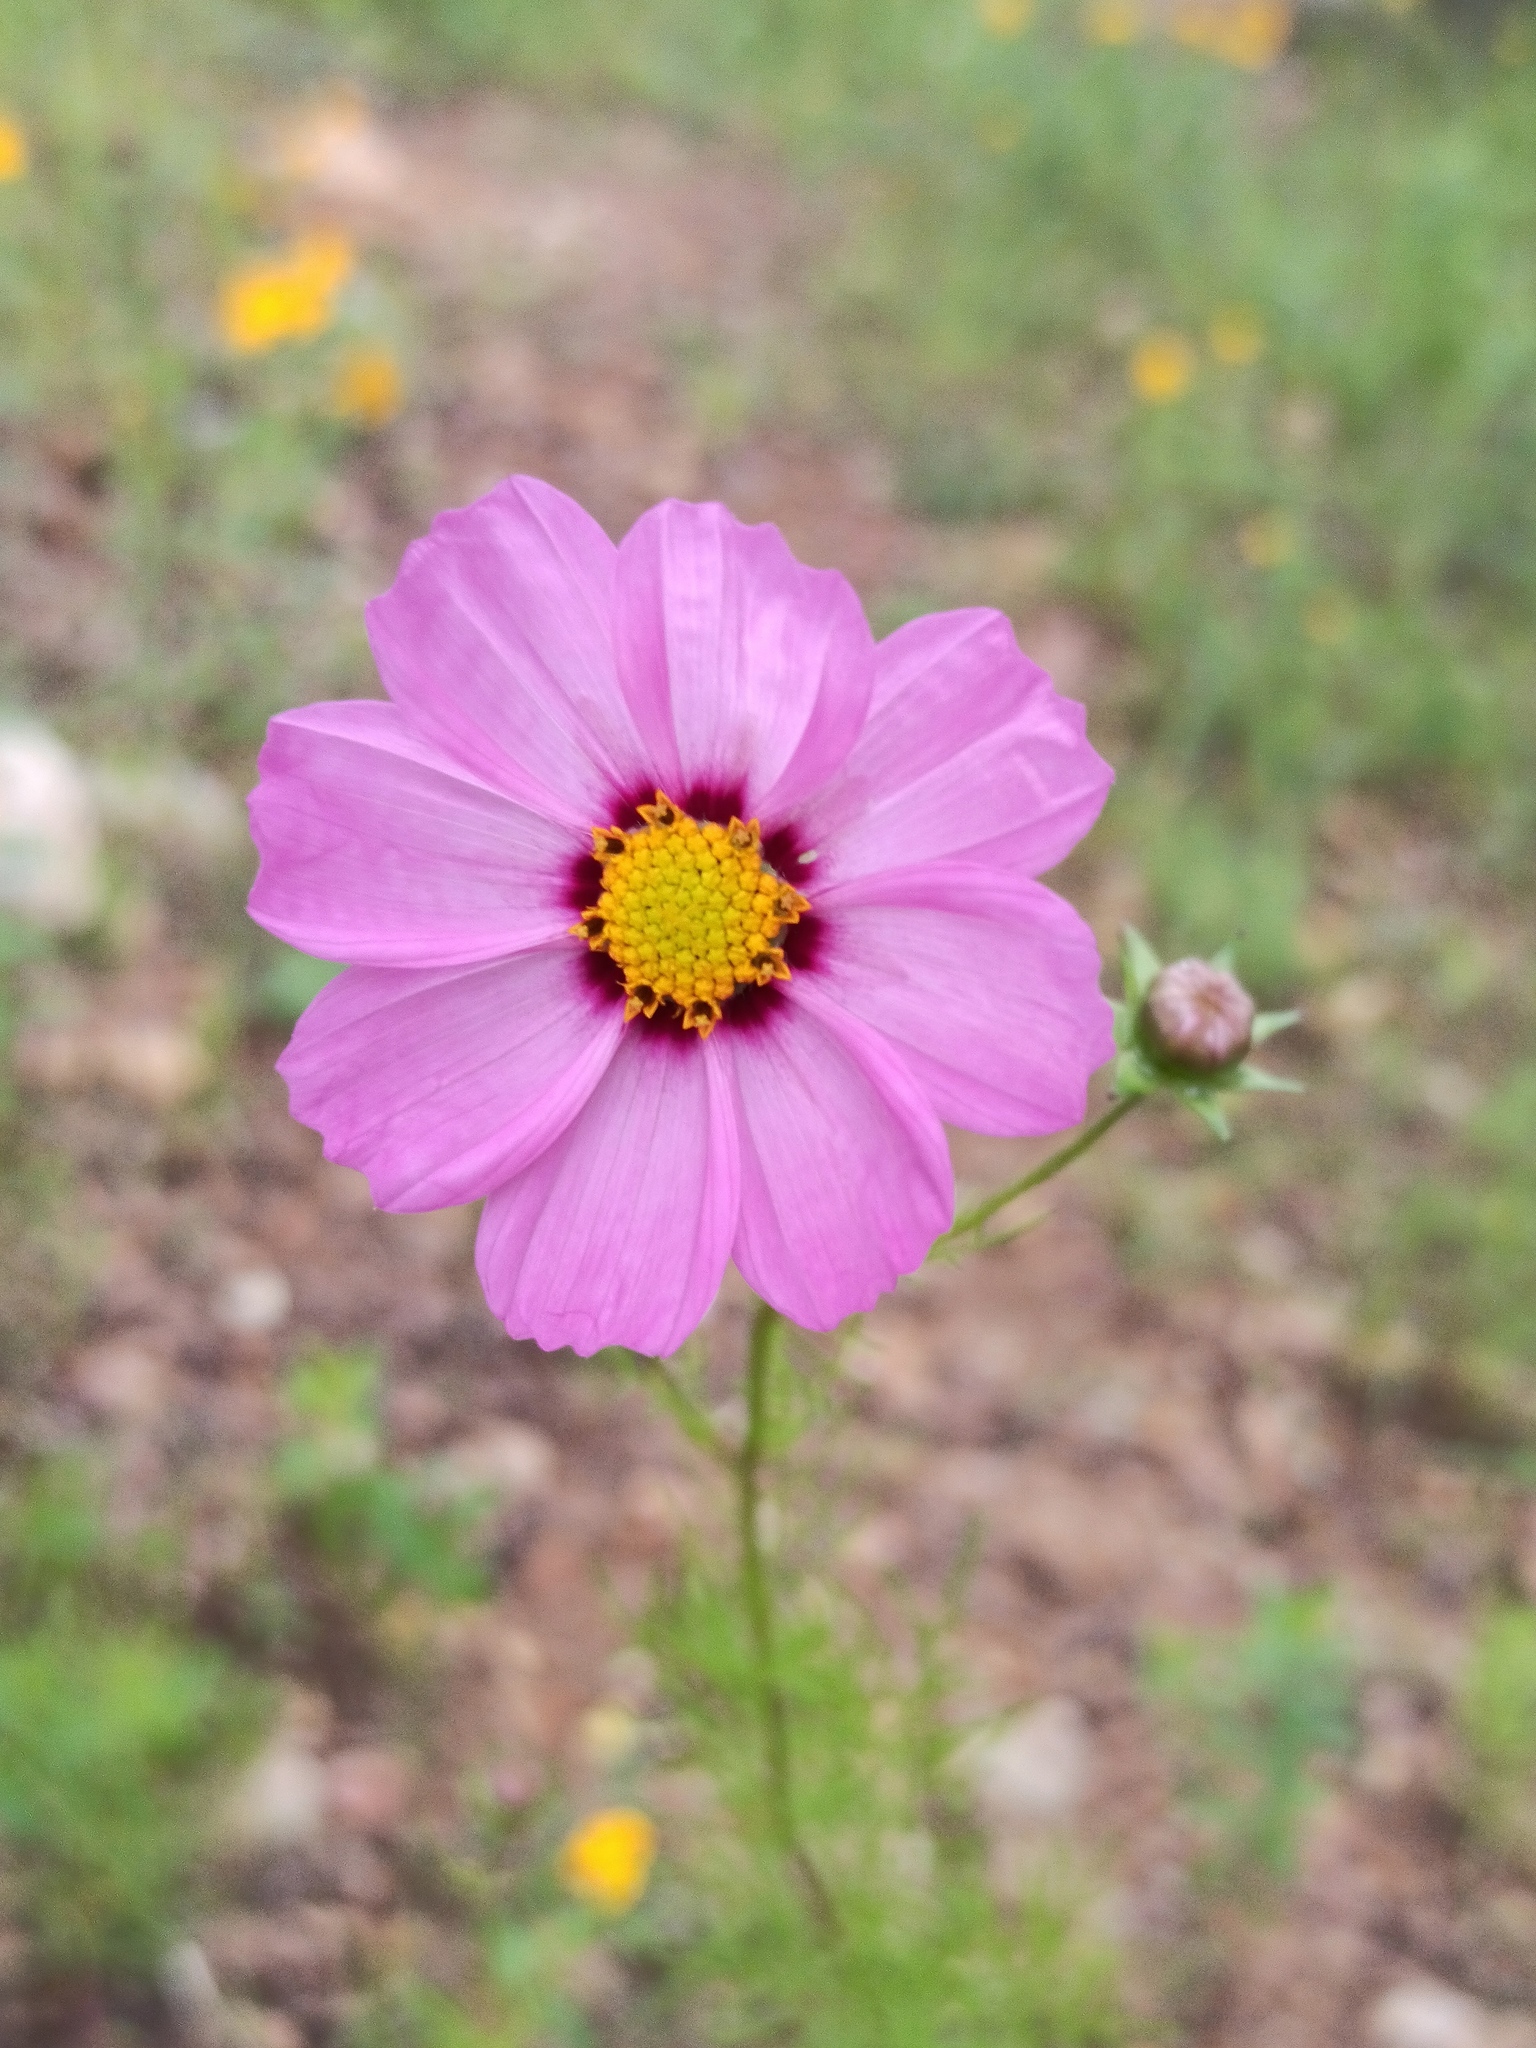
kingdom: Plantae
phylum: Tracheophyta
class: Magnoliopsida
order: Asterales
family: Asteraceae
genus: Cosmos
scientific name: Cosmos bipinnatus
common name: Garden cosmos
